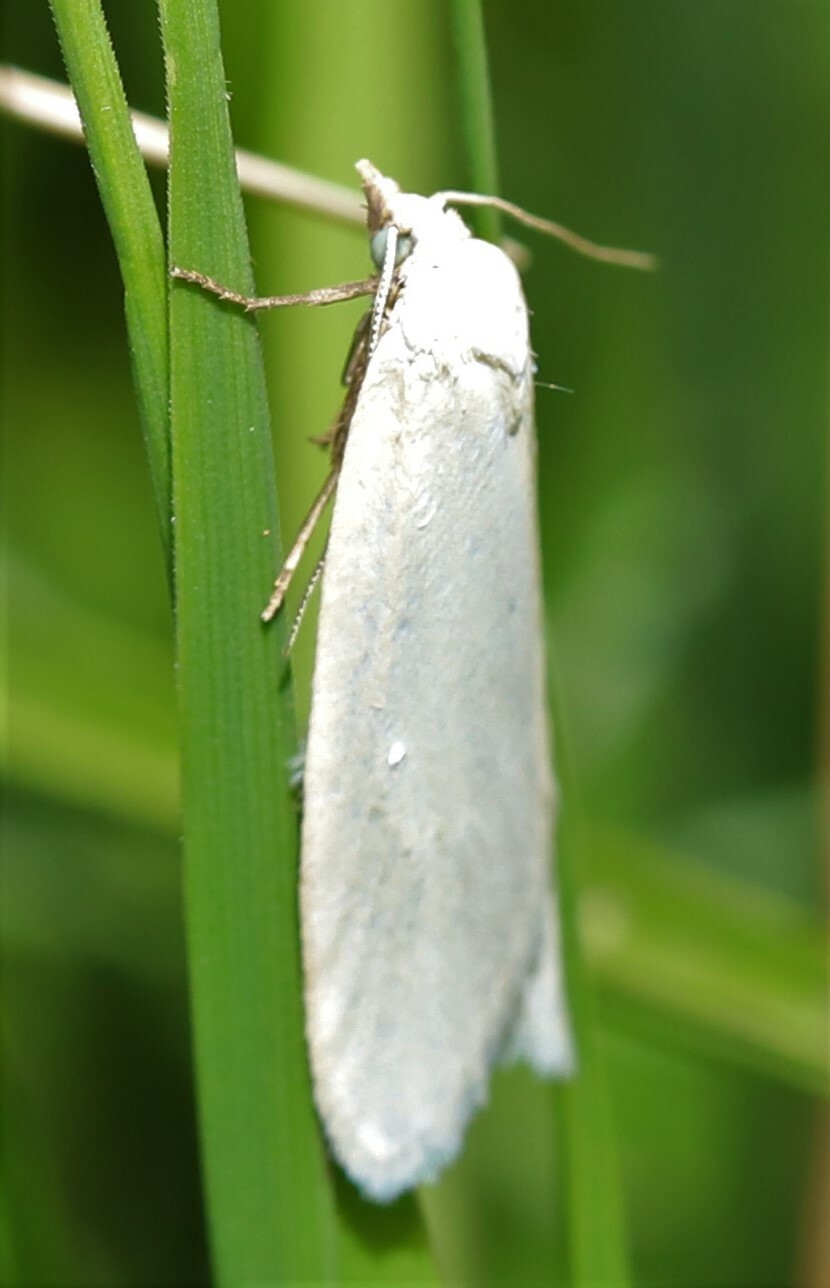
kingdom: Animalia
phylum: Arthropoda
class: Insecta
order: Lepidoptera
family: Tortricidae
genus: Eana
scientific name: Eana argentana
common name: Silver shade
